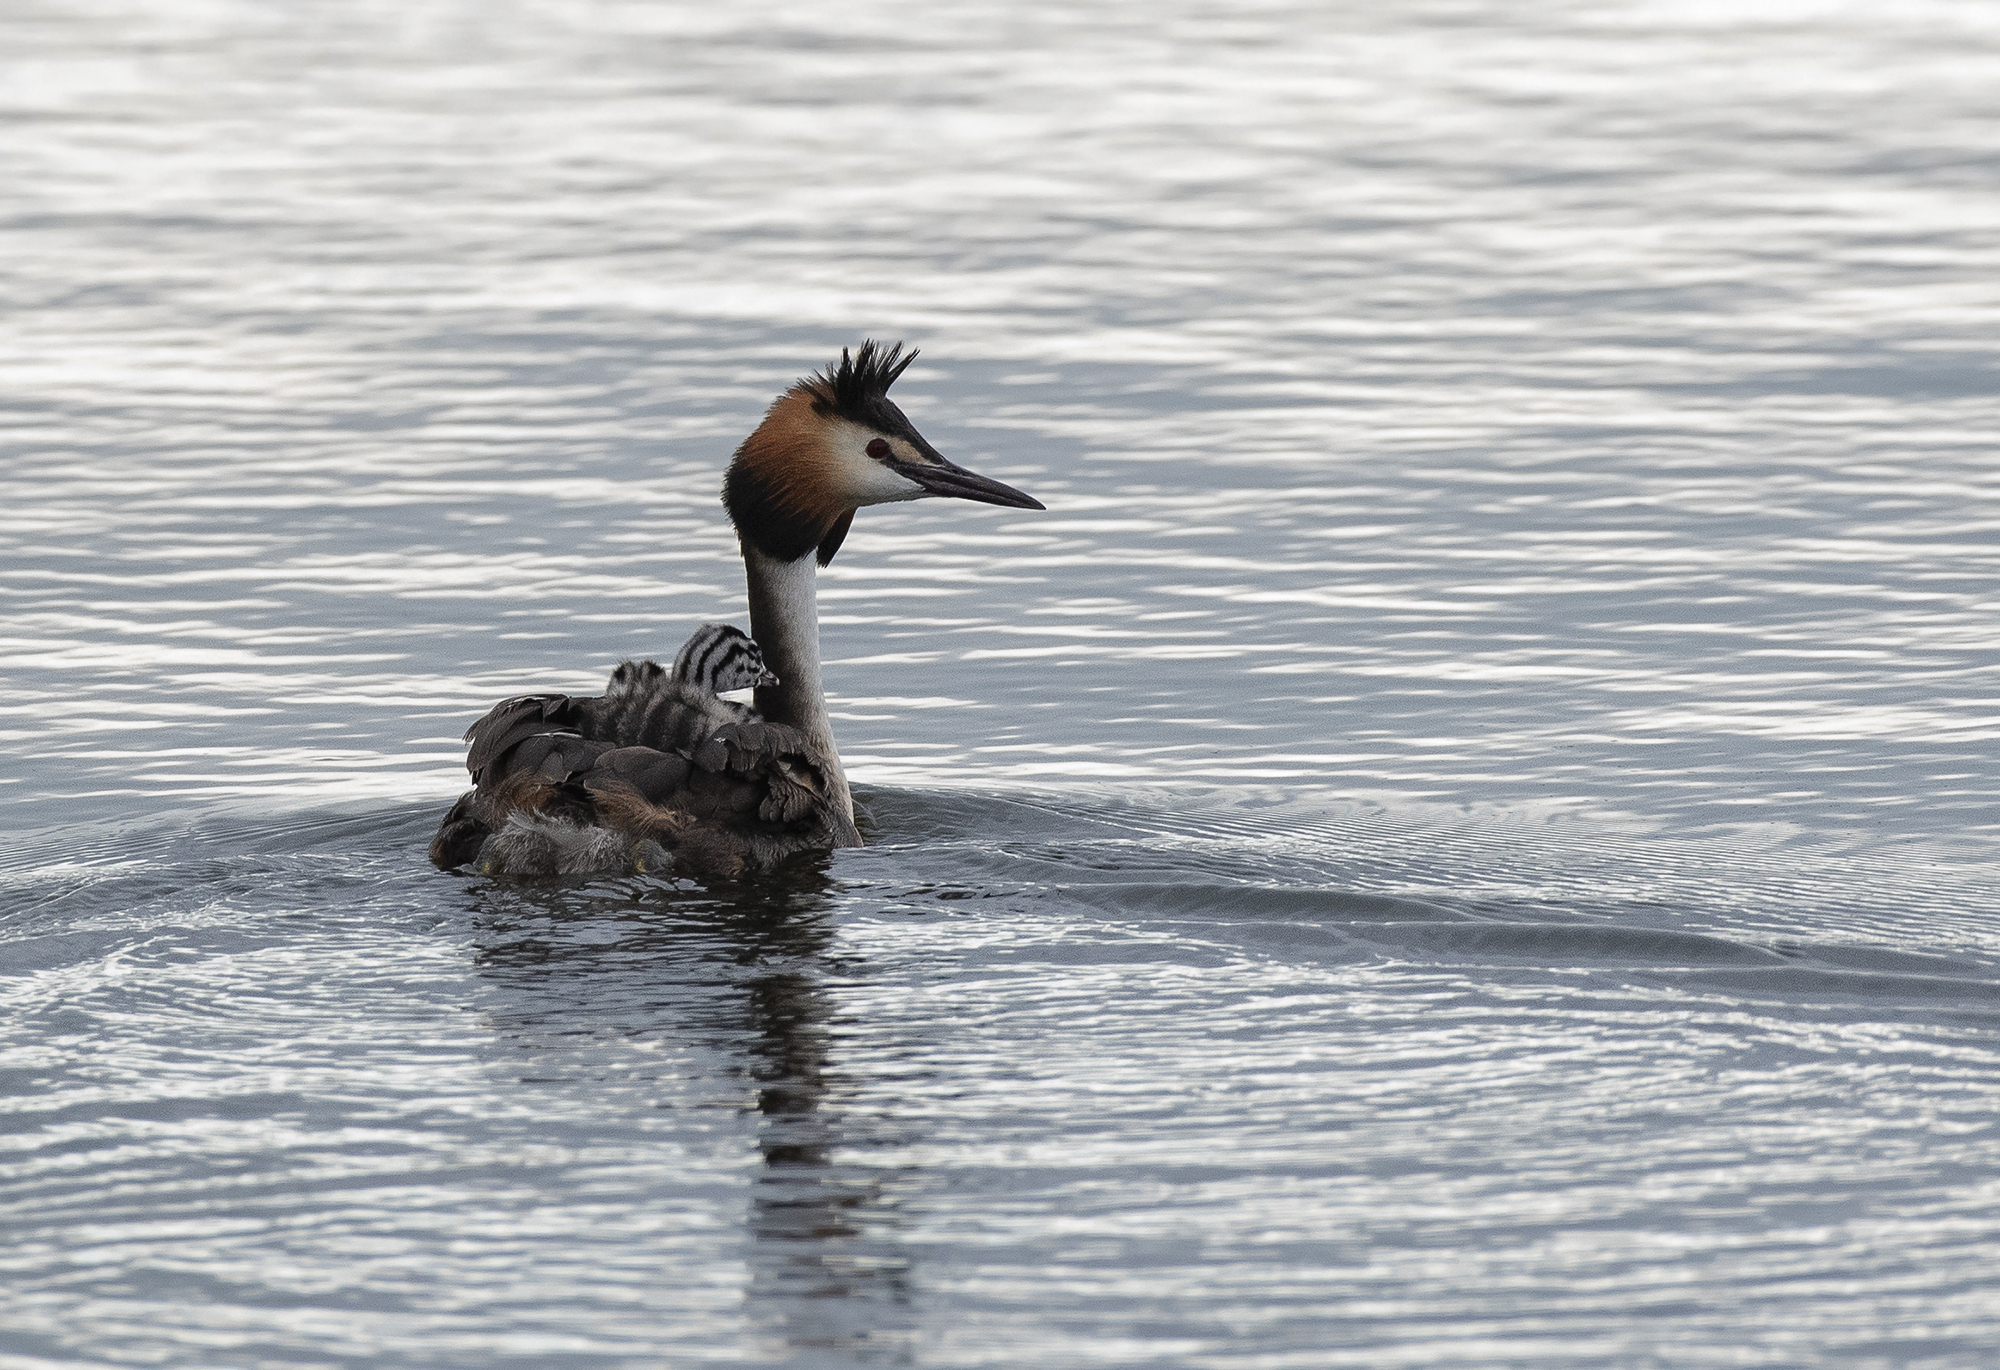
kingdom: Animalia
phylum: Chordata
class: Aves
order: Podicipediformes
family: Podicipedidae
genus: Podiceps
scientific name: Podiceps cristatus
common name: Great crested grebe
